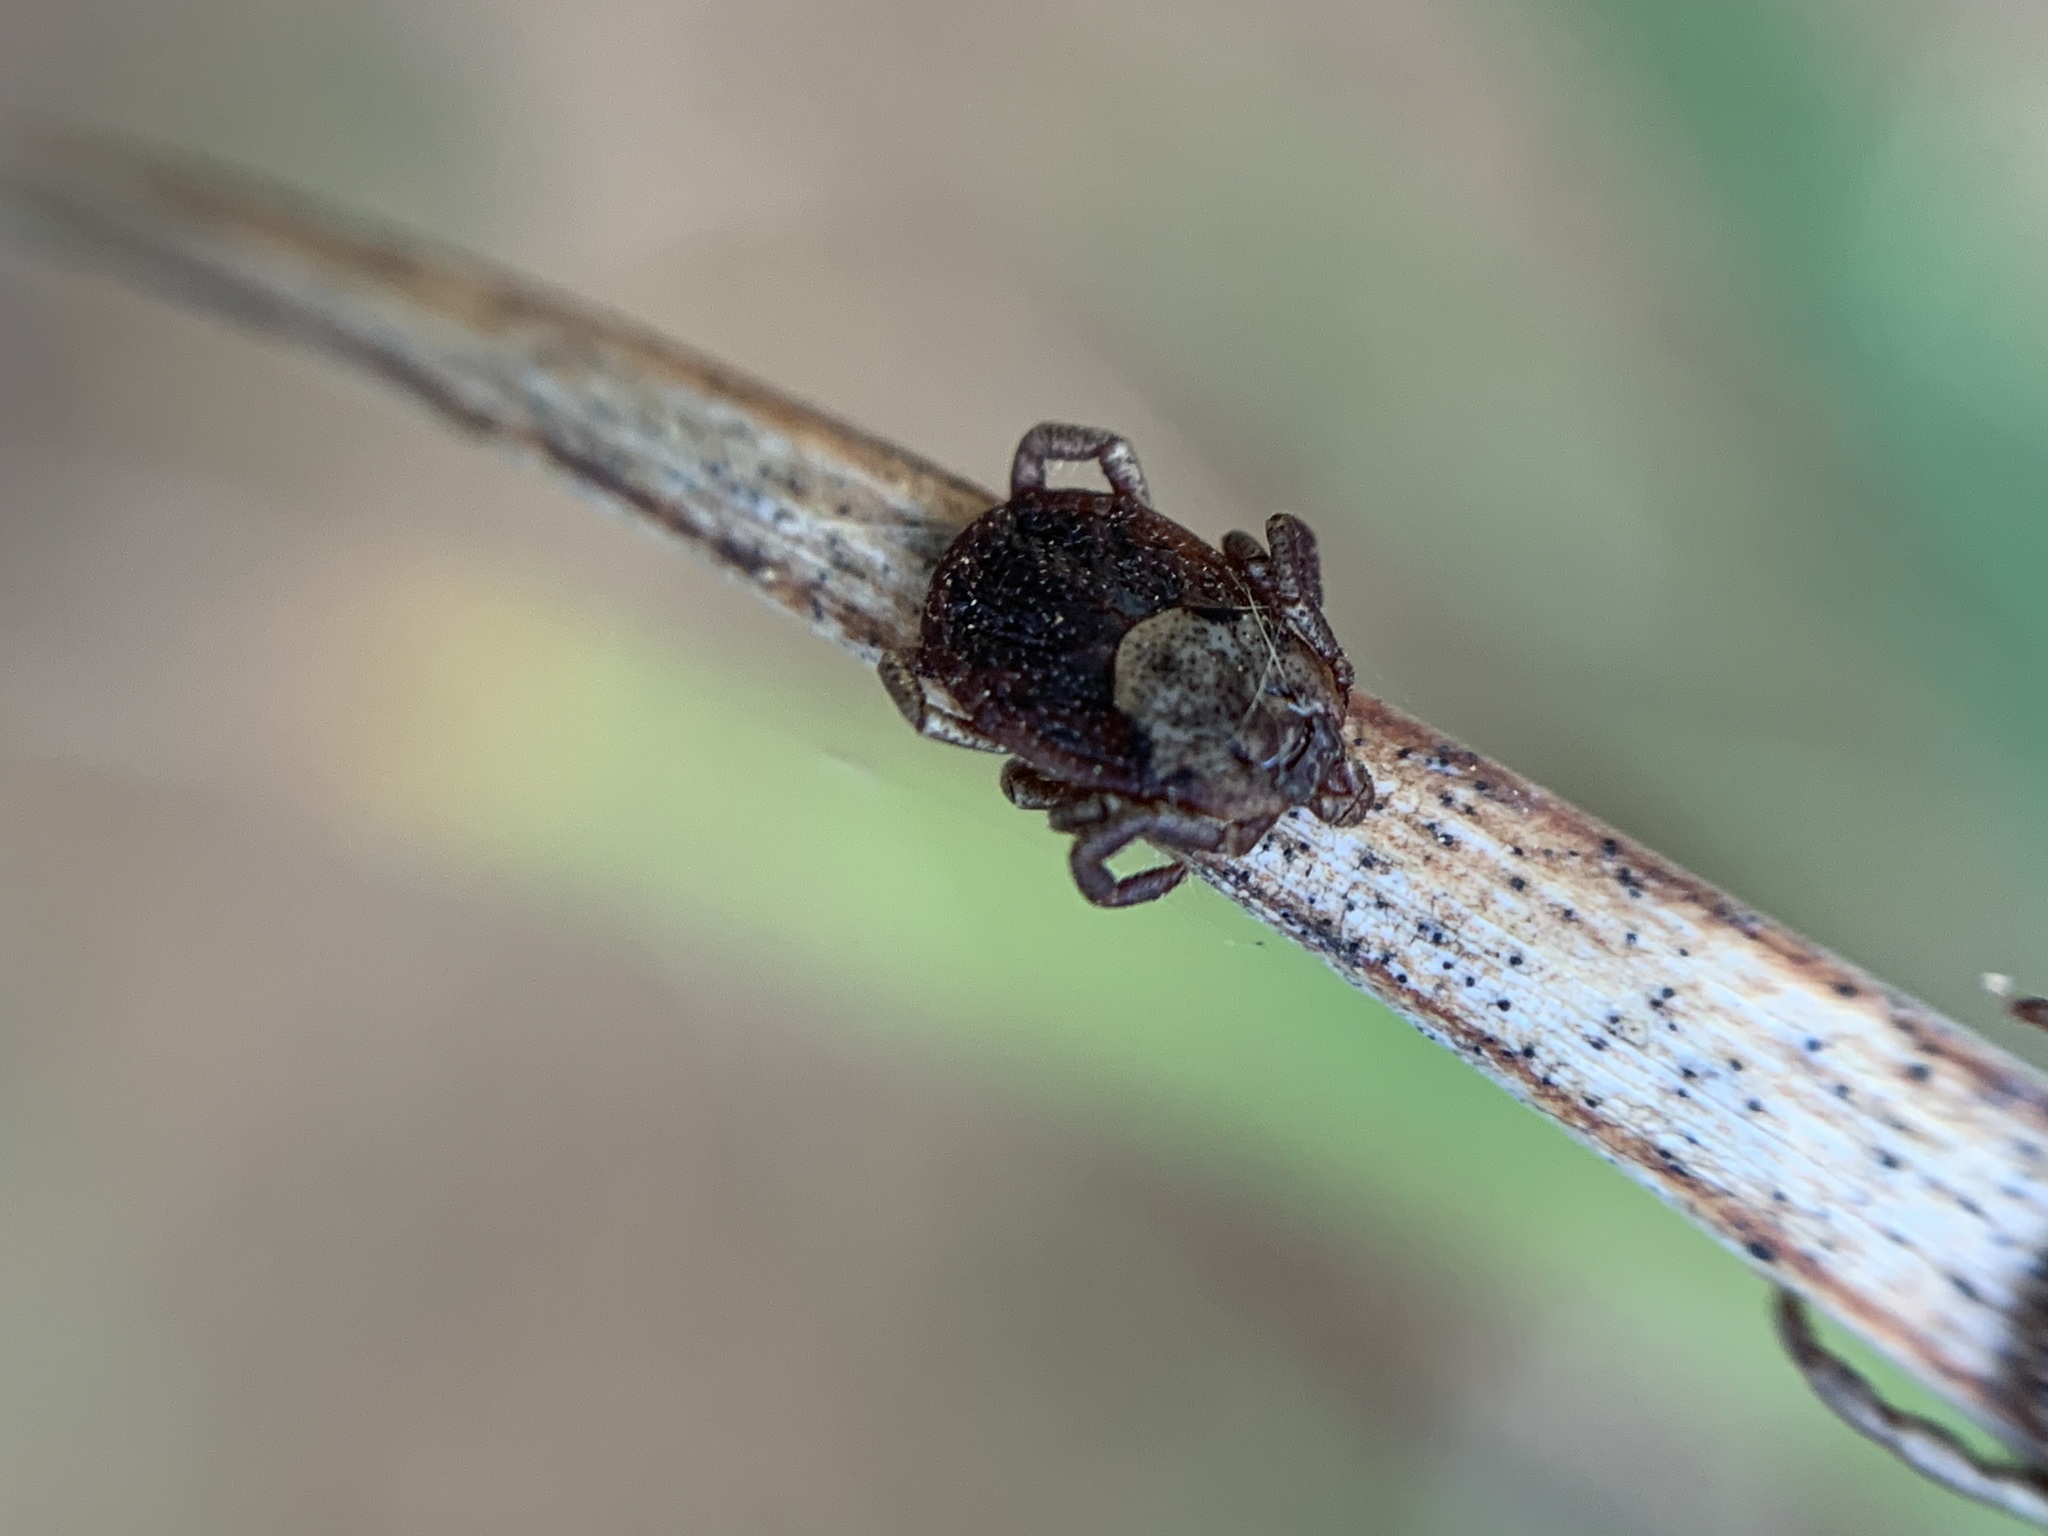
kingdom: Animalia
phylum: Arthropoda
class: Arachnida
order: Ixodida
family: Ixodidae
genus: Dermacentor
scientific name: Dermacentor occidentalis
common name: Net tick
